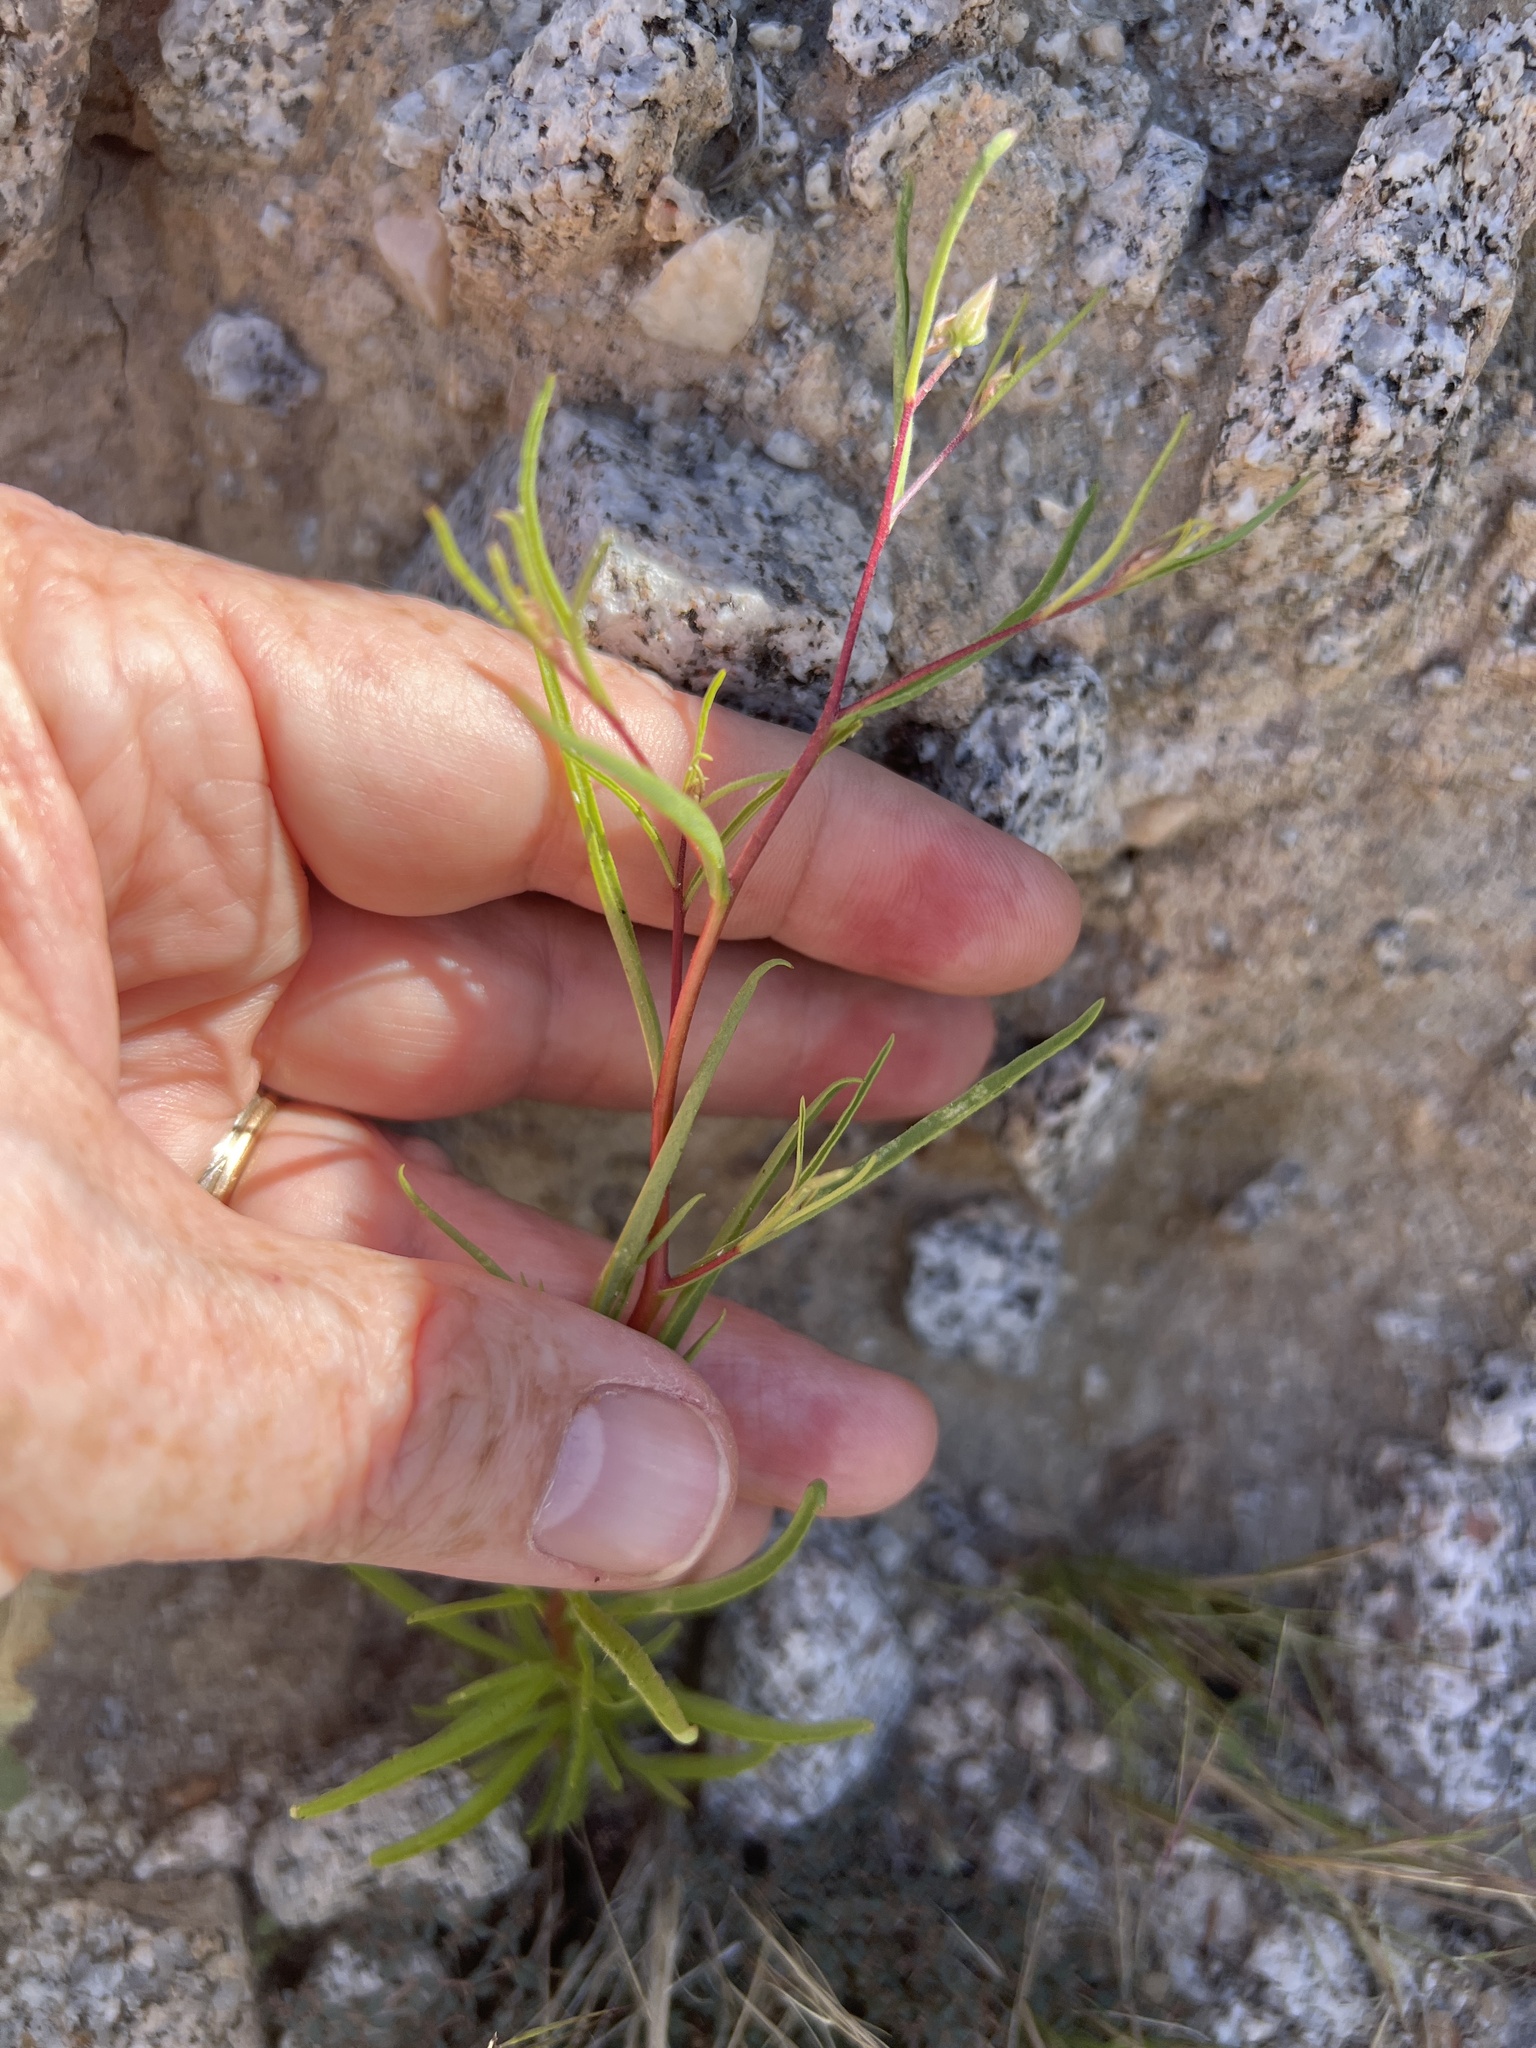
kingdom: Plantae
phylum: Tracheophyta
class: Magnoliopsida
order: Asterales
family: Asteraceae
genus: Malperia
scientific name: Malperia tenuis
